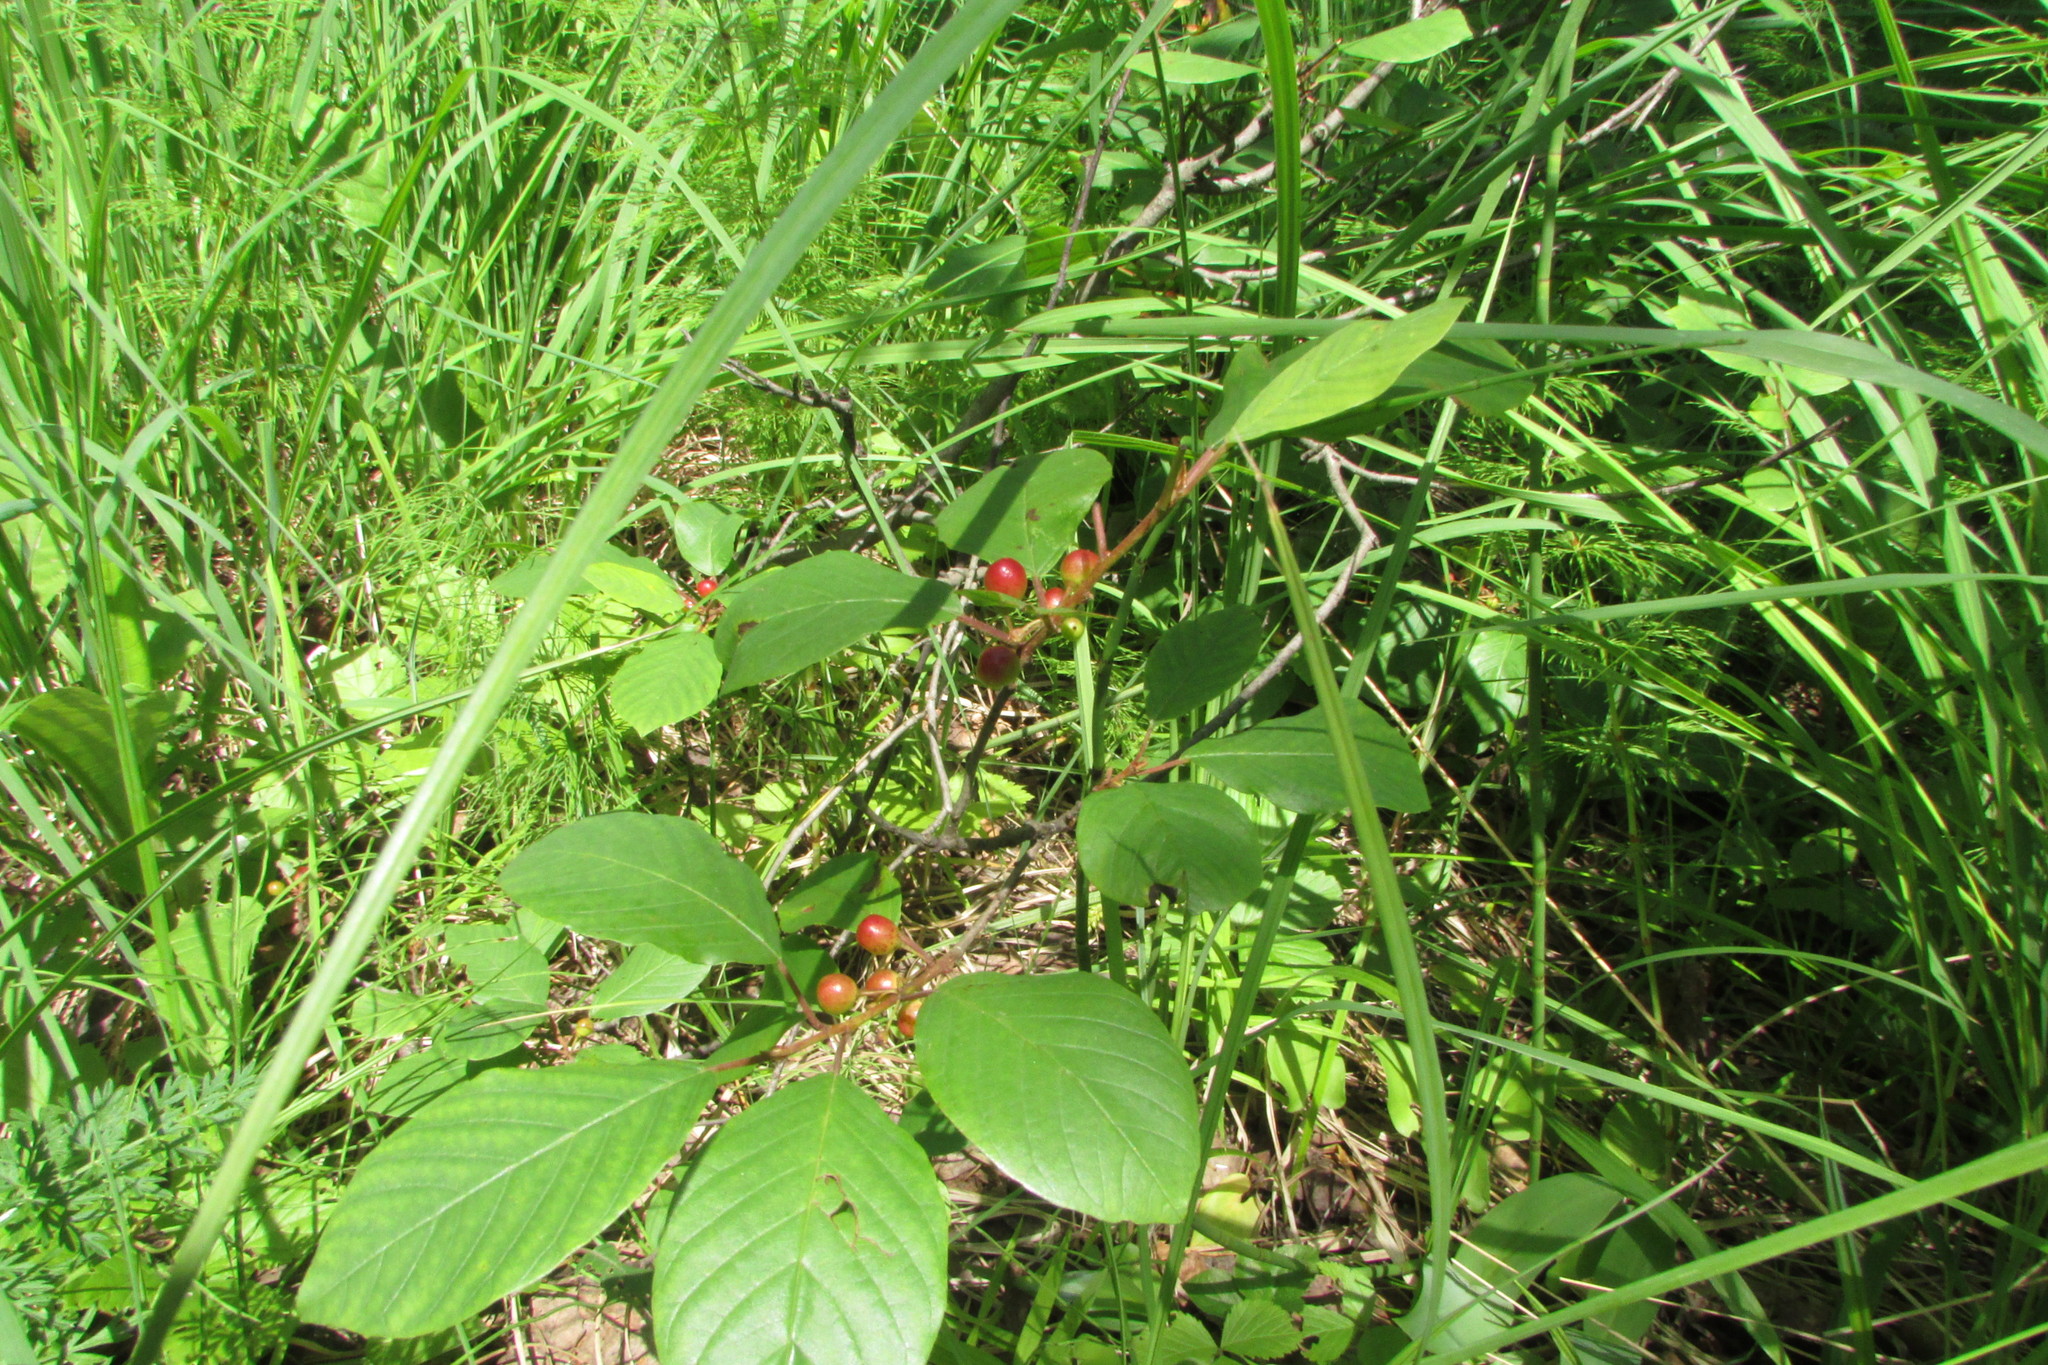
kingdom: Plantae
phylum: Tracheophyta
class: Magnoliopsida
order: Rosales
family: Rhamnaceae
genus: Frangula
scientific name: Frangula alnus
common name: Alder buckthorn
